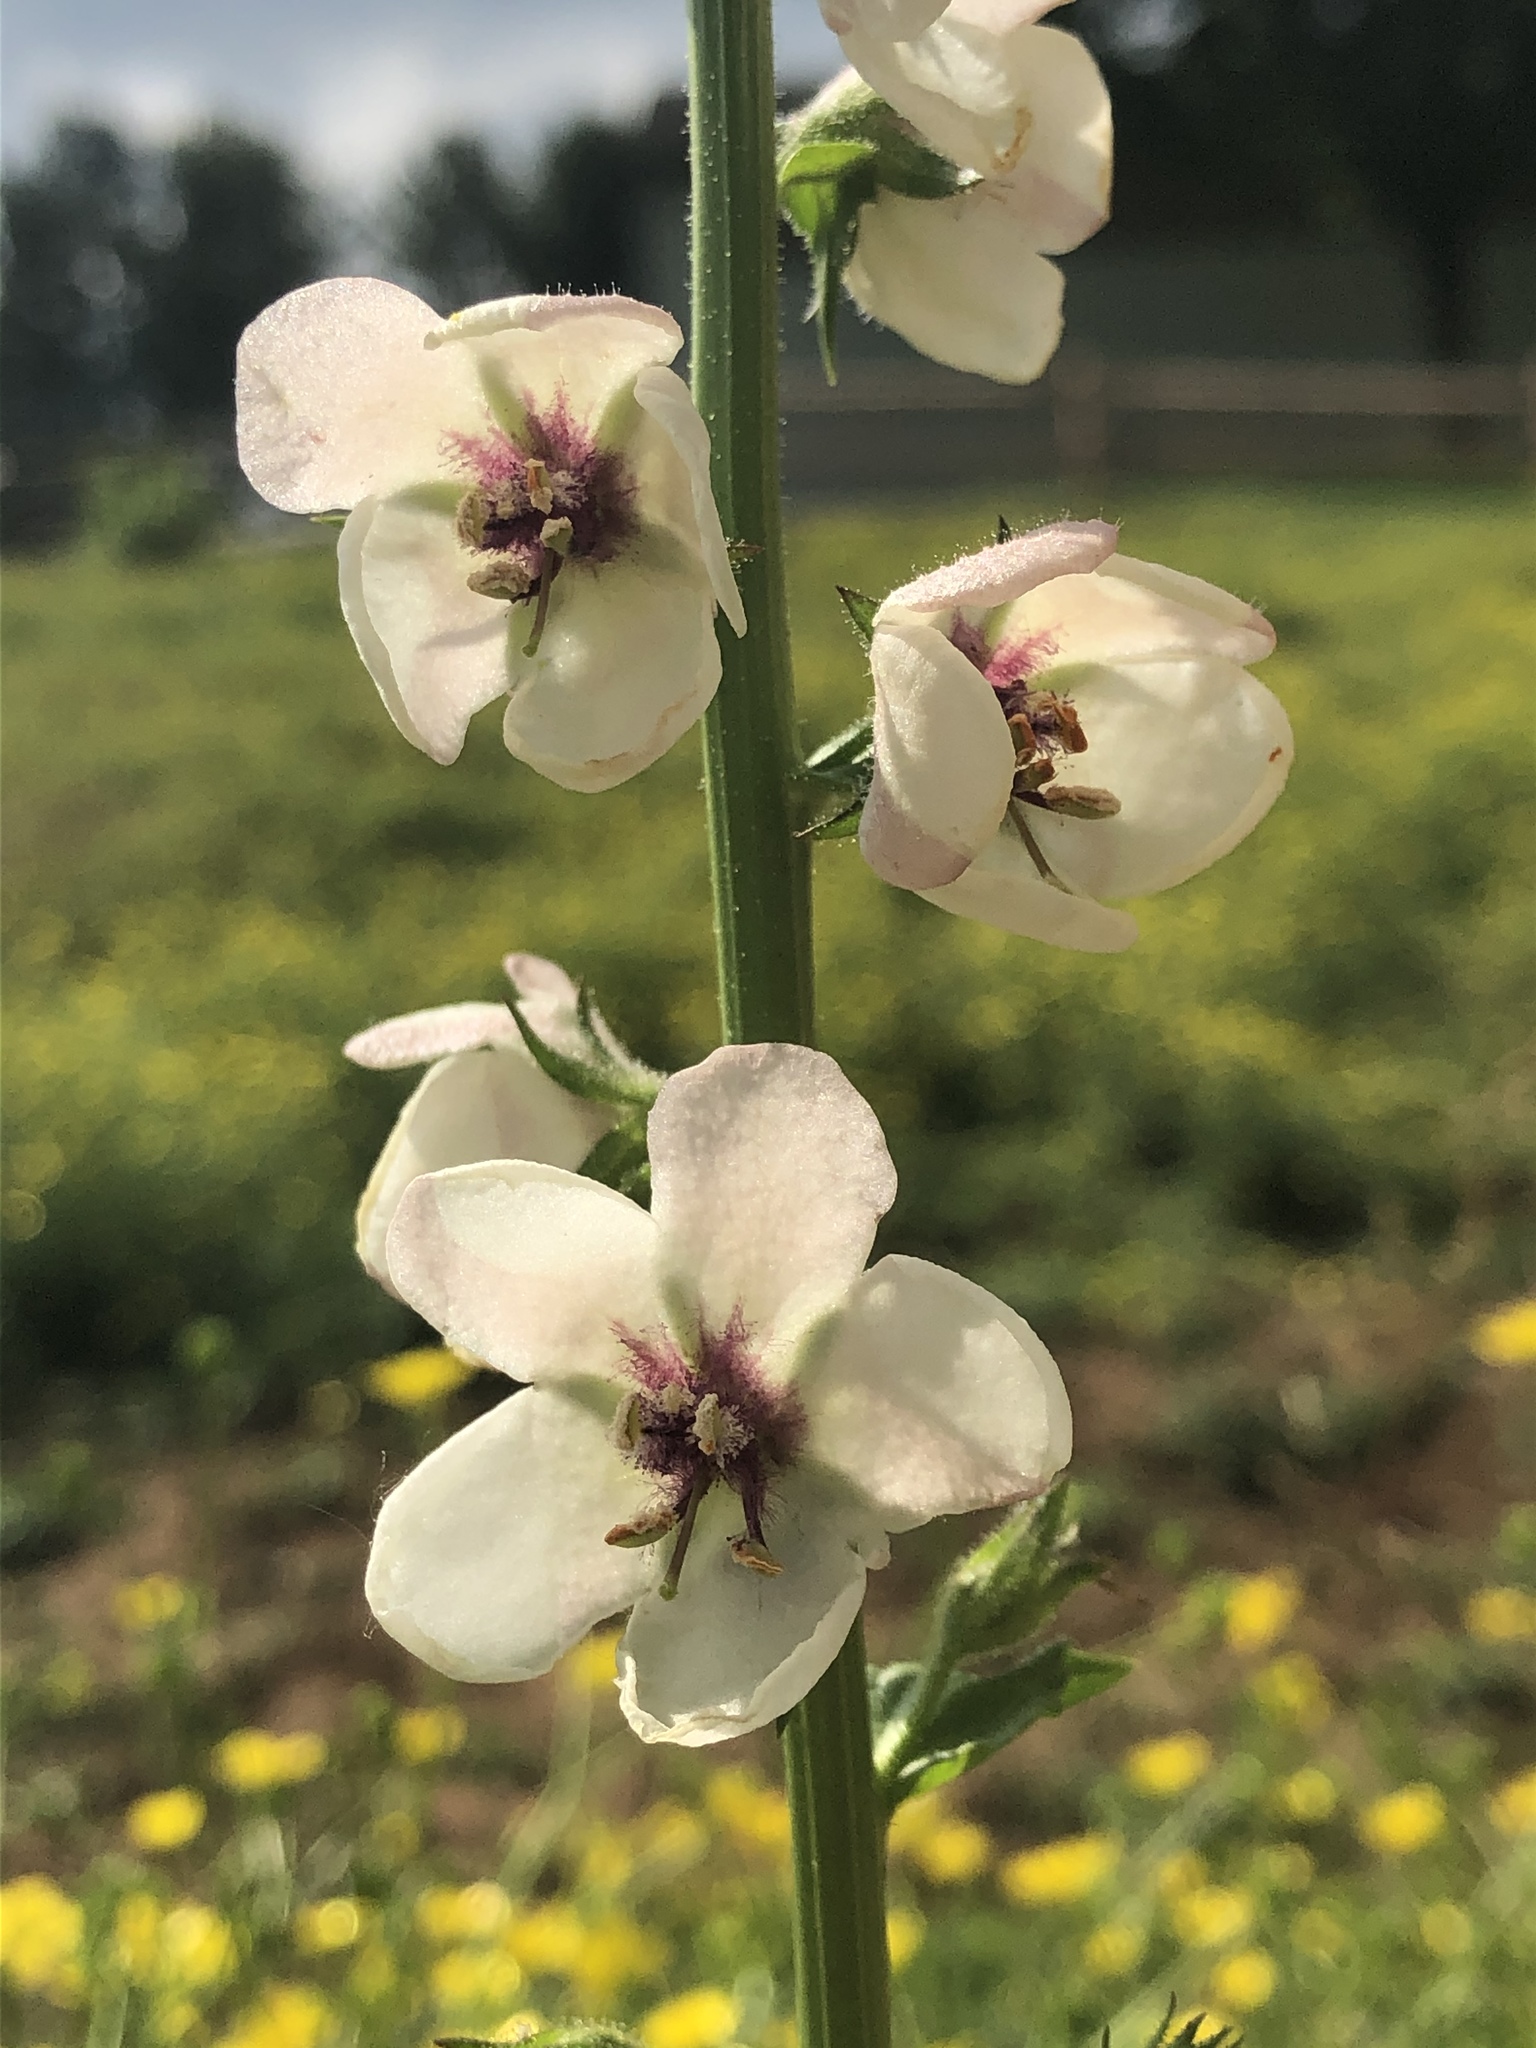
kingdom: Plantae
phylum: Tracheophyta
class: Magnoliopsida
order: Lamiales
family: Scrophulariaceae
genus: Verbascum
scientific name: Verbascum blattaria
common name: Moth mullein
